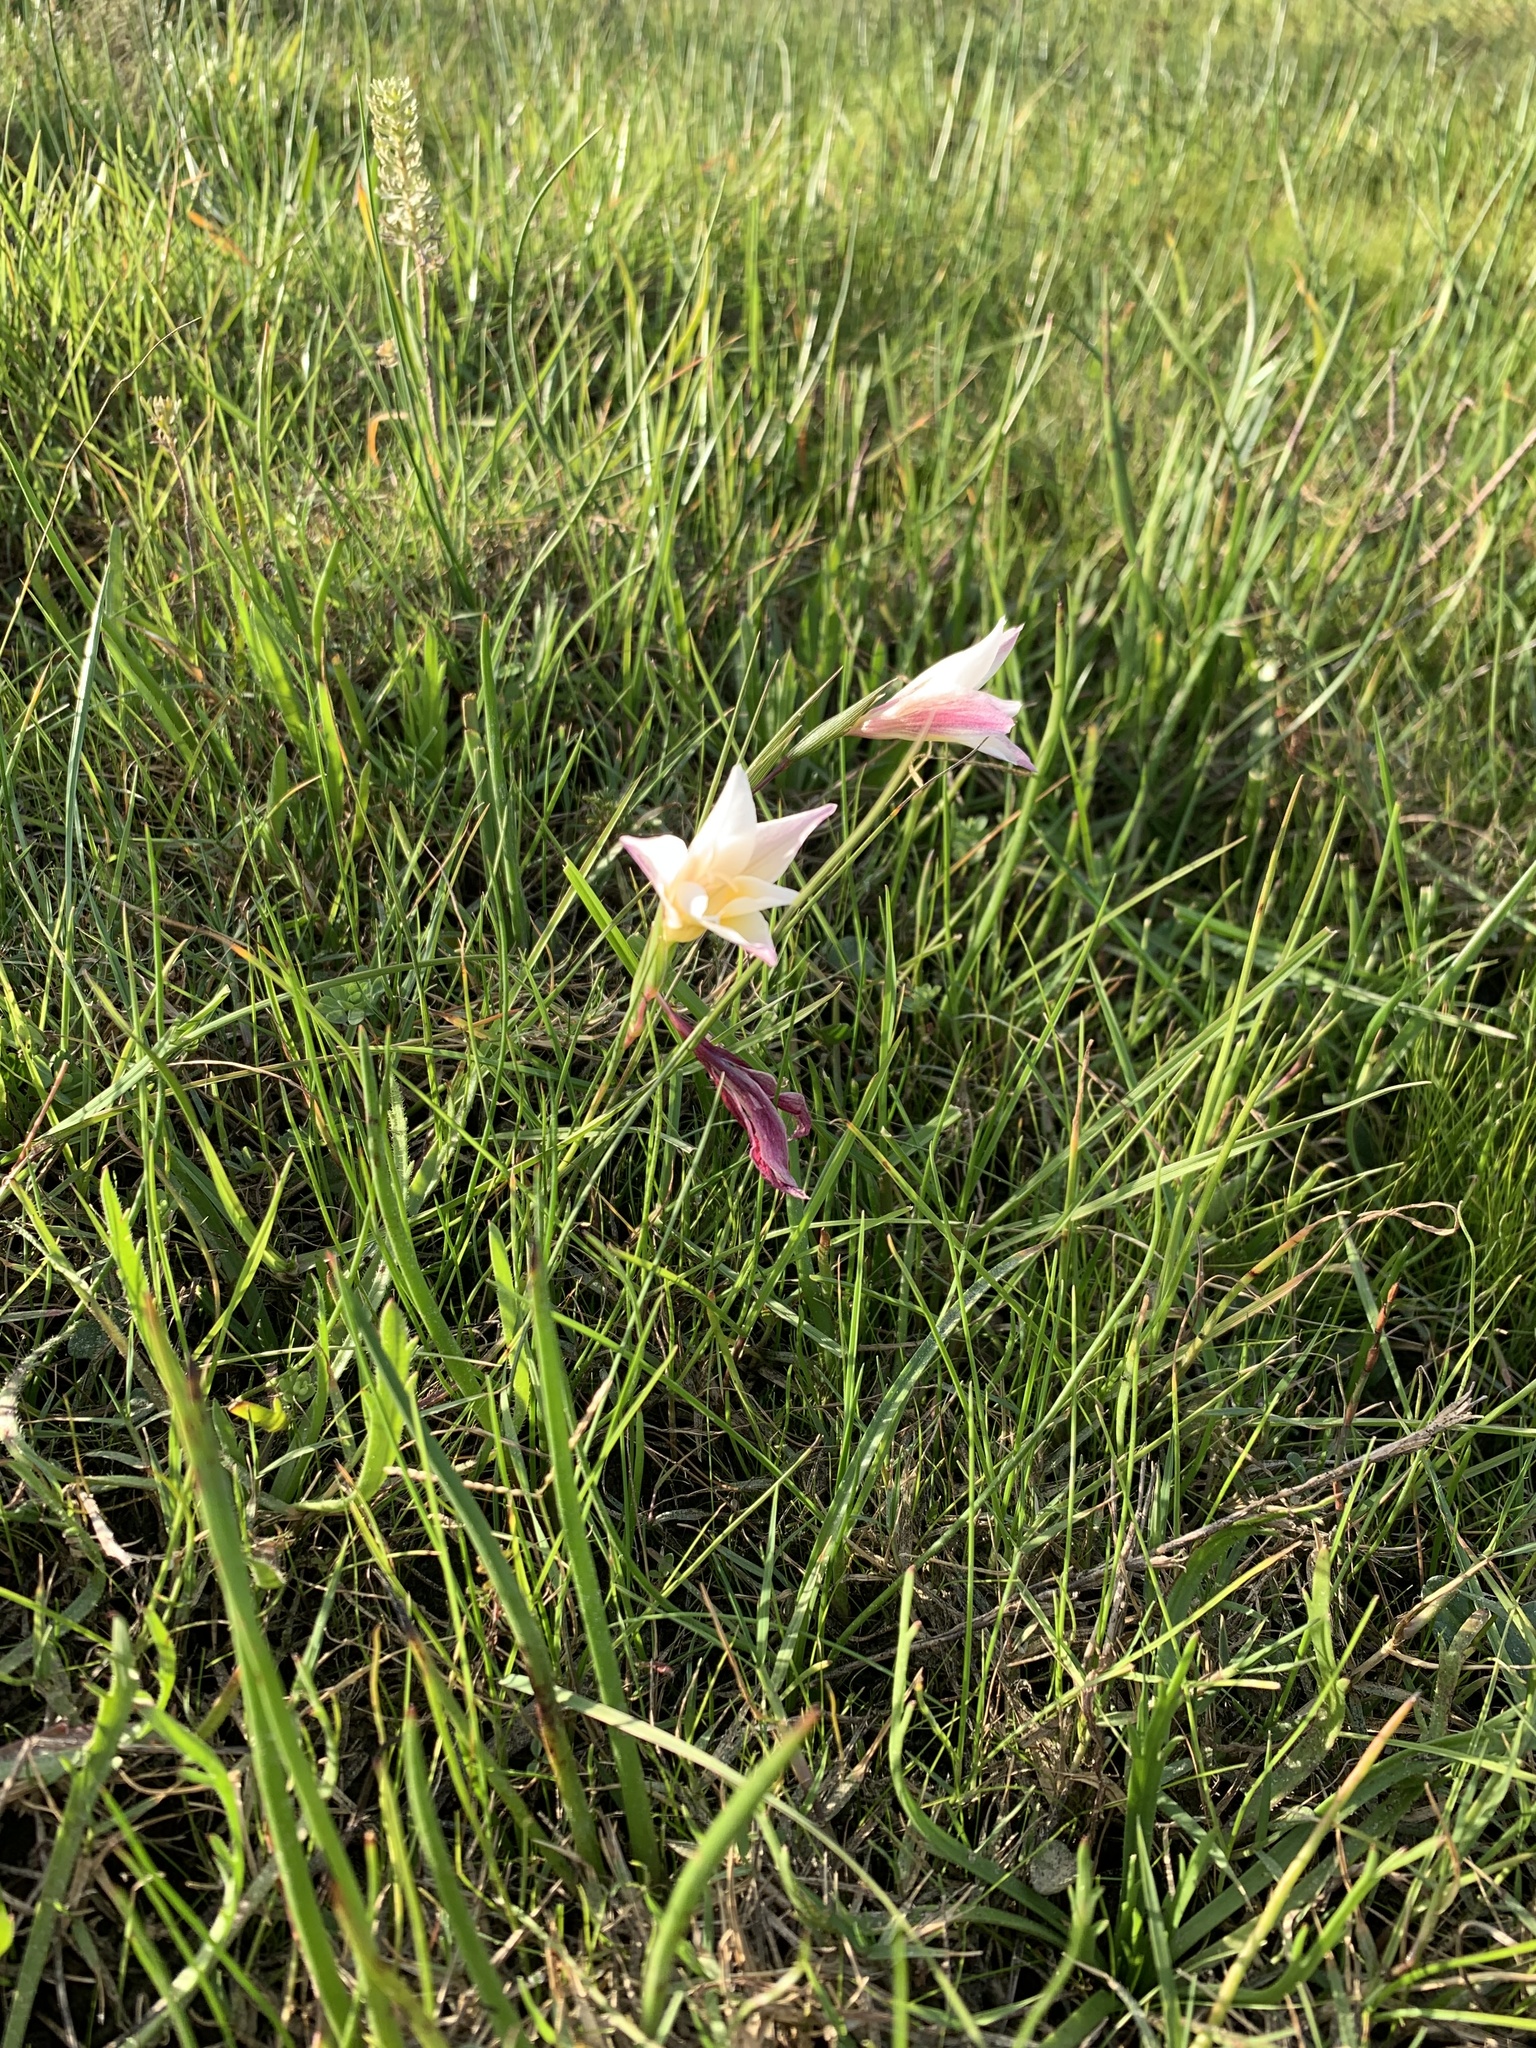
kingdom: Plantae
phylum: Tracheophyta
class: Liliopsida
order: Asparagales
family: Iridaceae
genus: Gladiolus
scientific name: Gladiolus trichonemifolius
